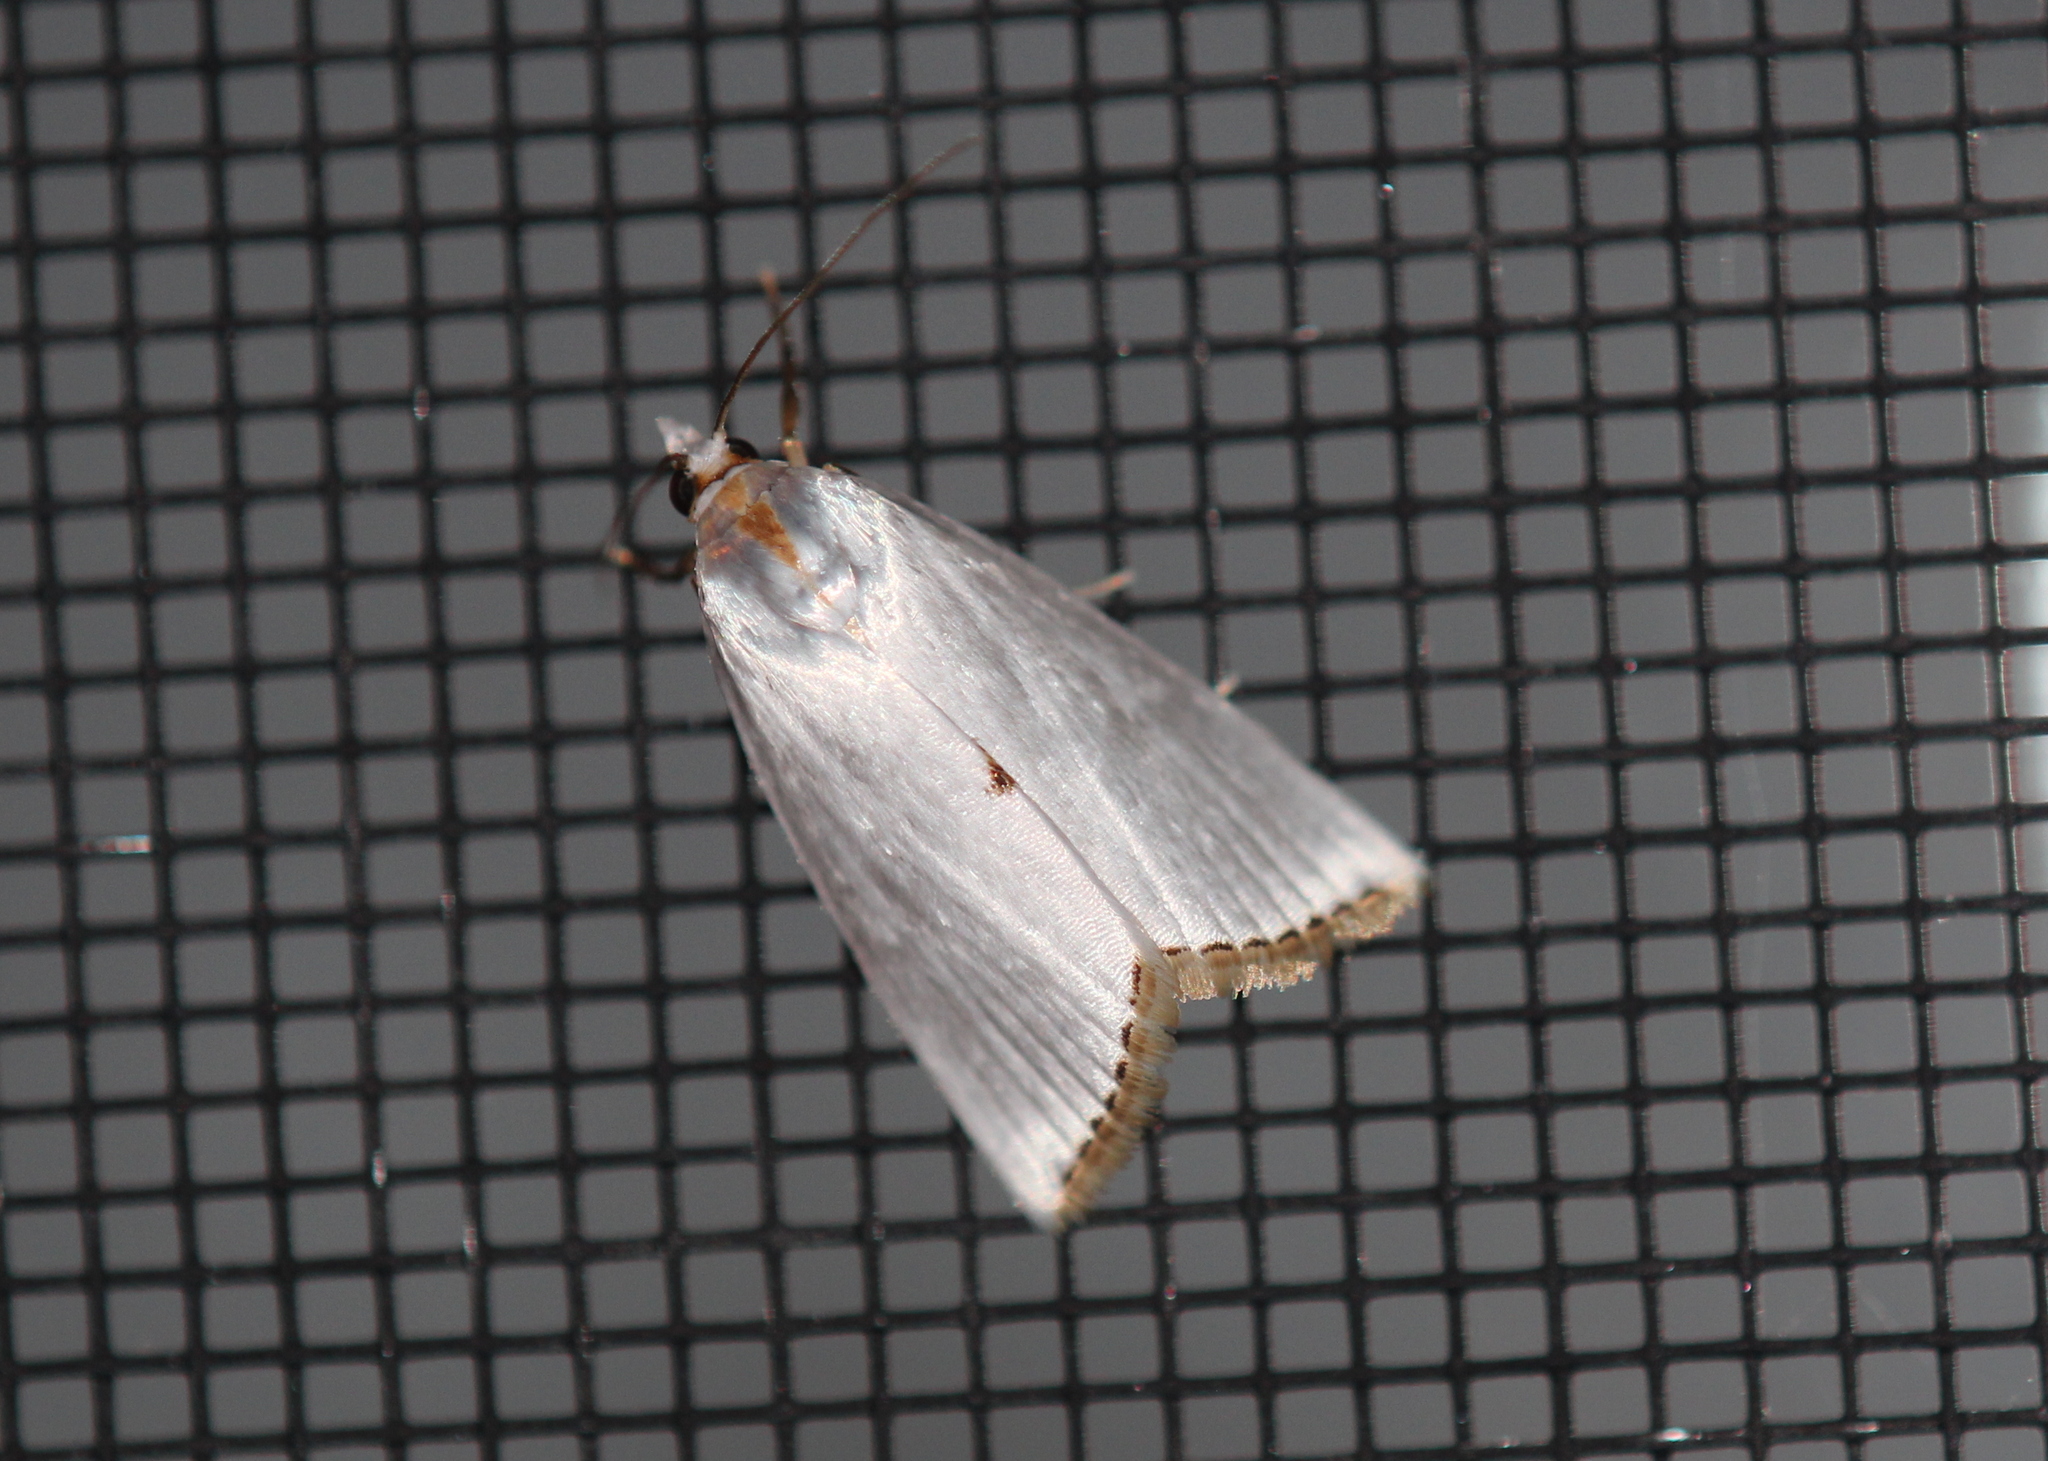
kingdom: Animalia
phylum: Arthropoda
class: Insecta
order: Lepidoptera
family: Crambidae
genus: Argyria
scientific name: Argyria nivalis
